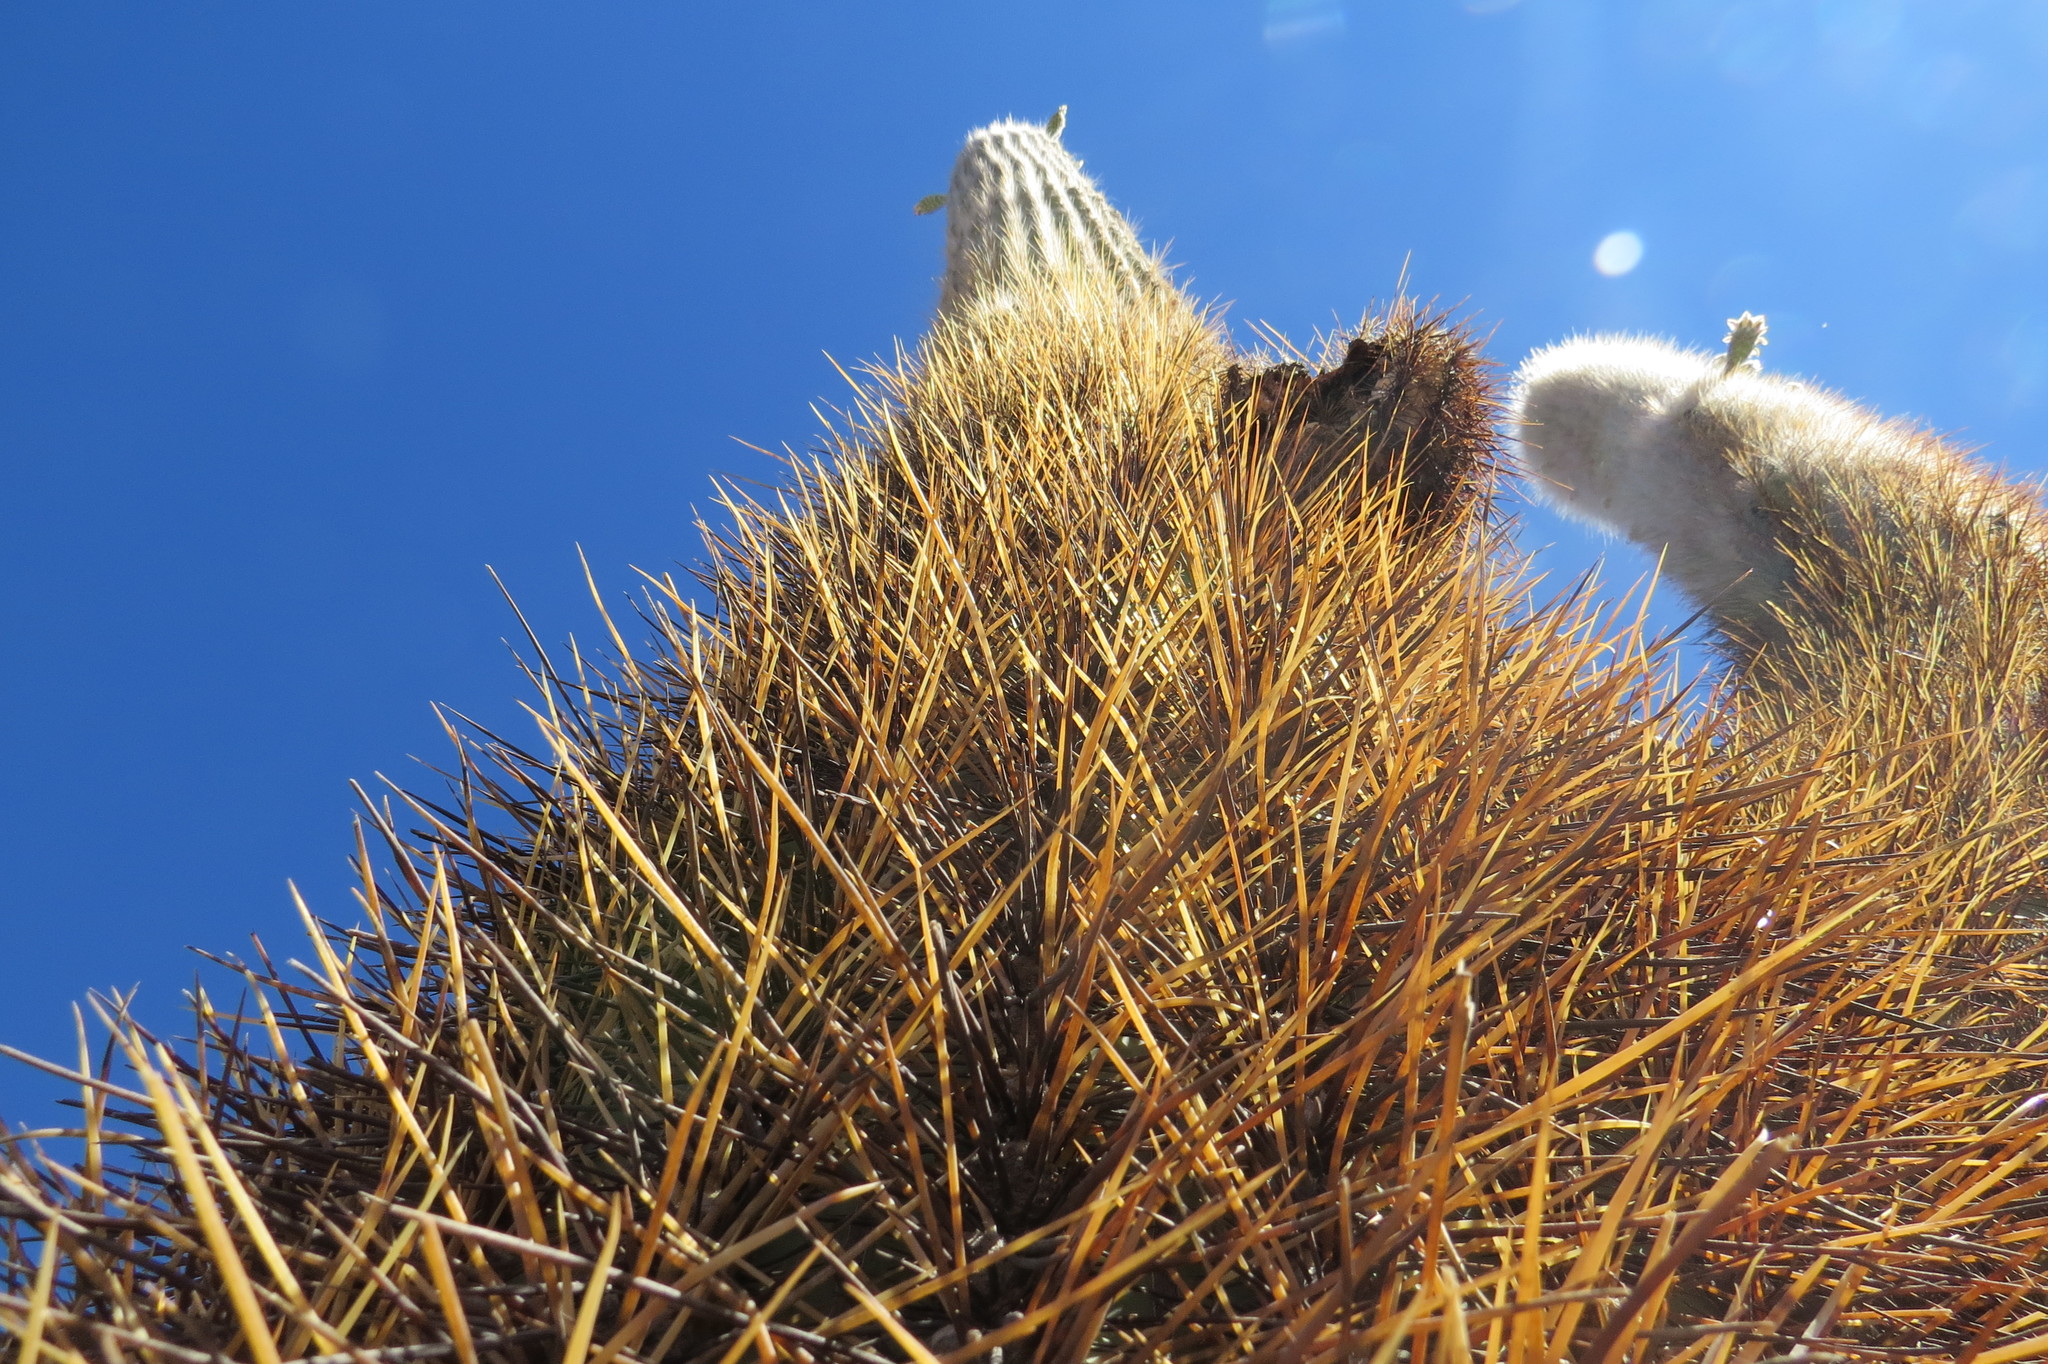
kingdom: Plantae
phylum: Tracheophyta
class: Magnoliopsida
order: Caryophyllales
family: Cactaceae
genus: Leucostele
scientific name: Leucostele atacamensis
